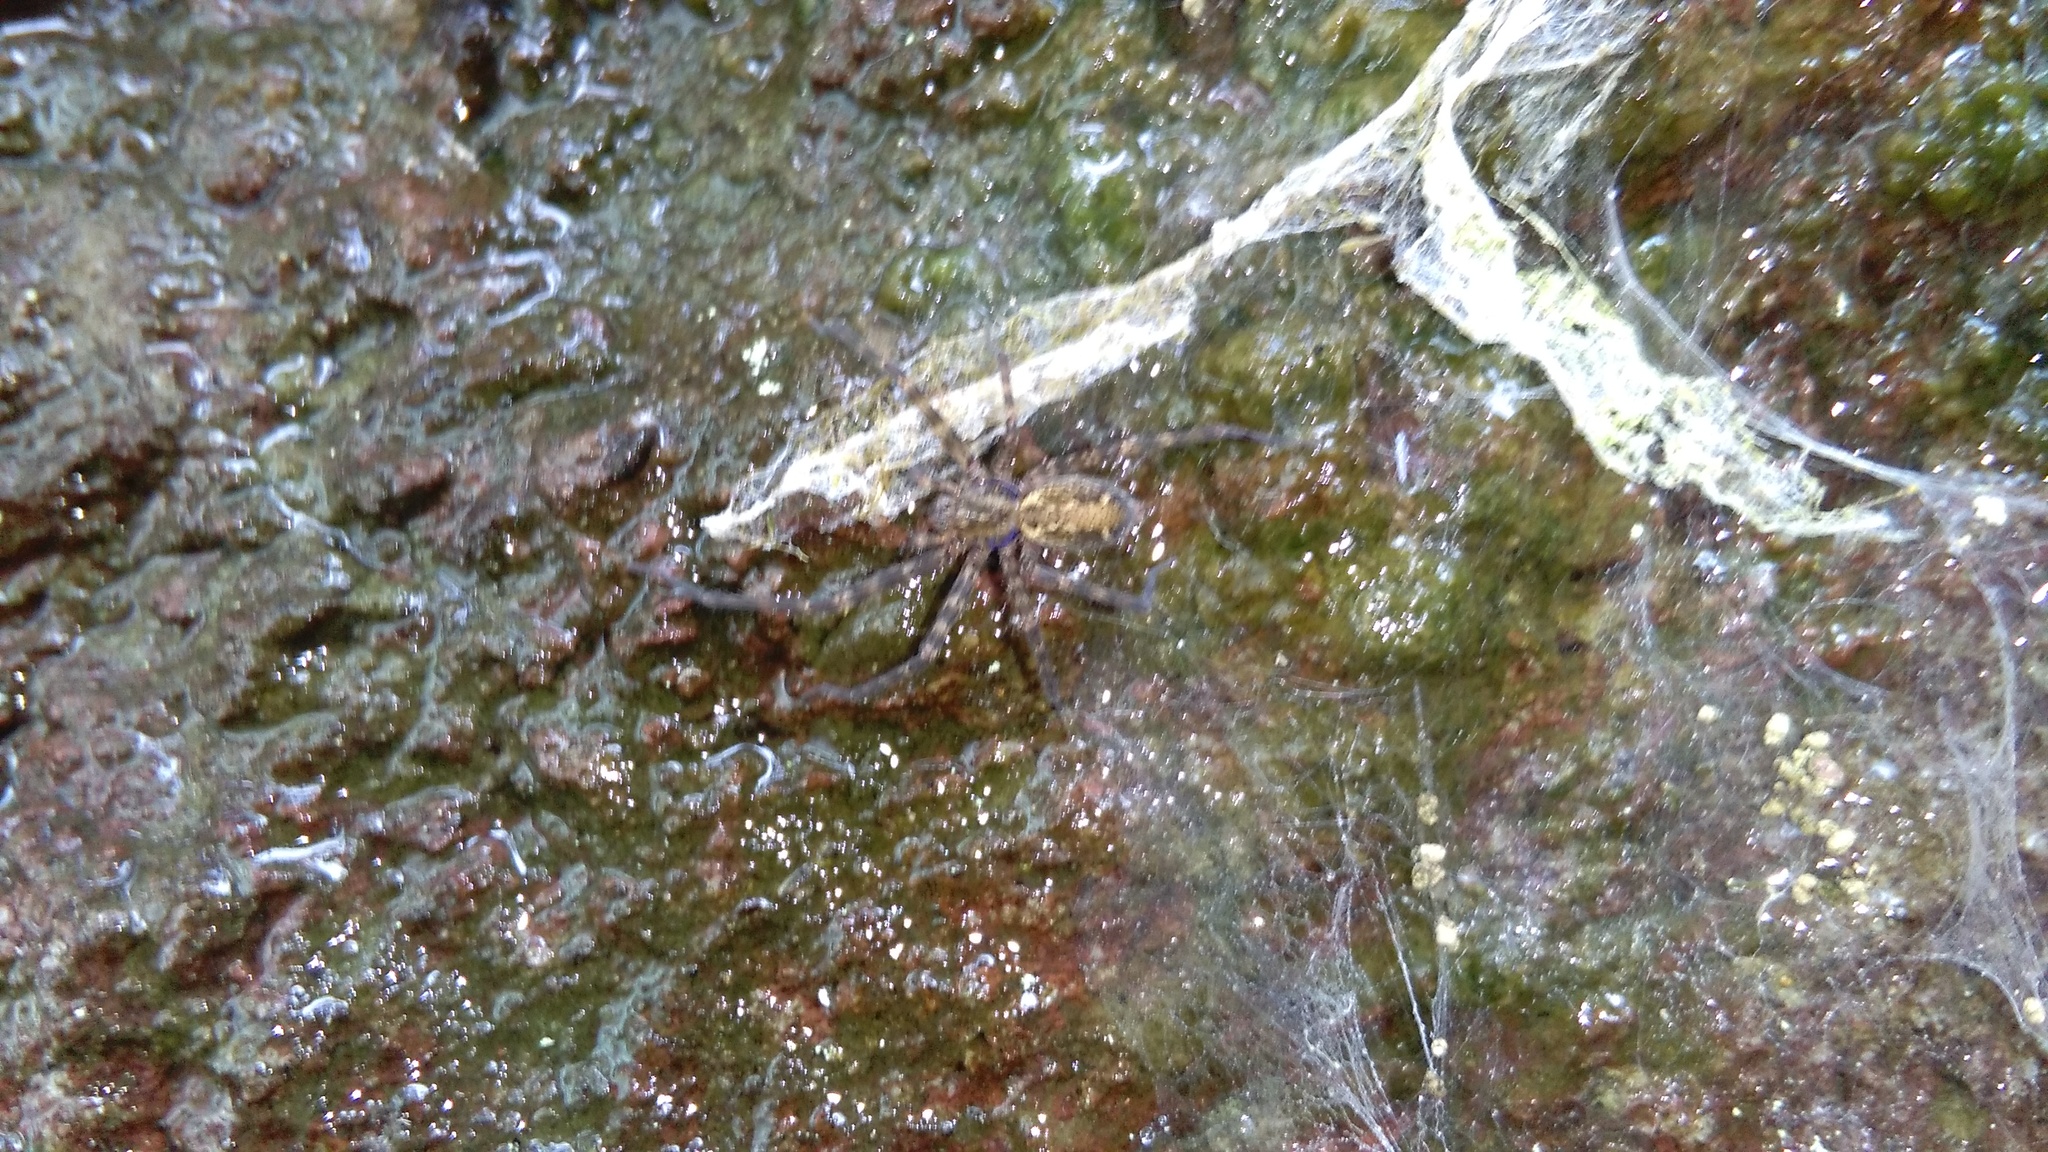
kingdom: Animalia
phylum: Arthropoda
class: Arachnida
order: Araneae
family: Stiphidiidae
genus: Stiphidion
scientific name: Stiphidion facetum
